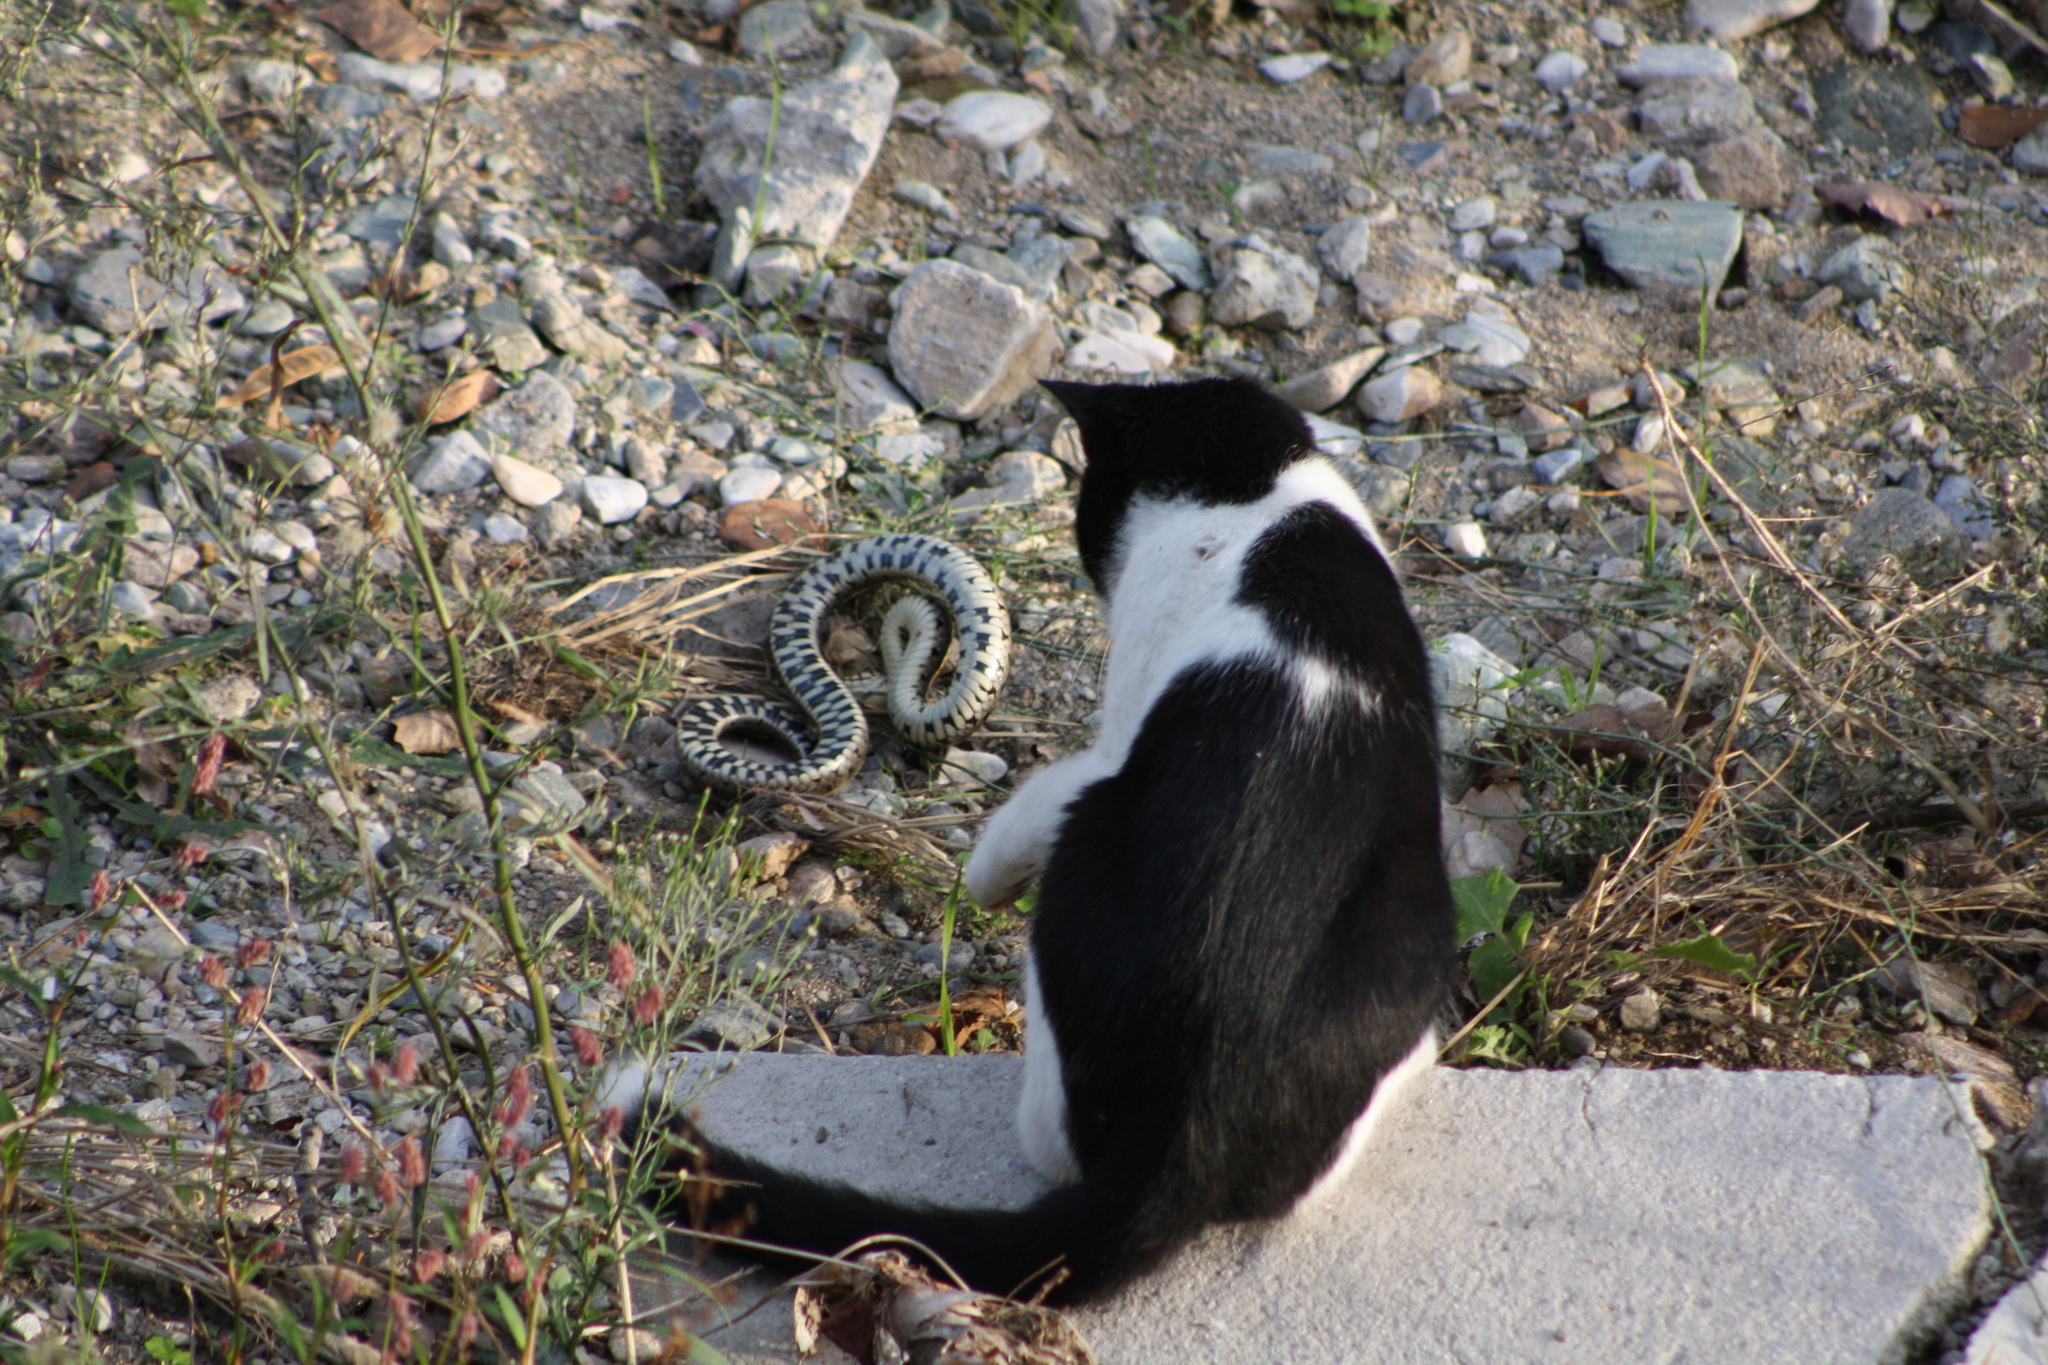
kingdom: Animalia
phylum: Chordata
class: Squamata
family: Colubridae
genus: Natrix
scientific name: Natrix natrix
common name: Grass snake
